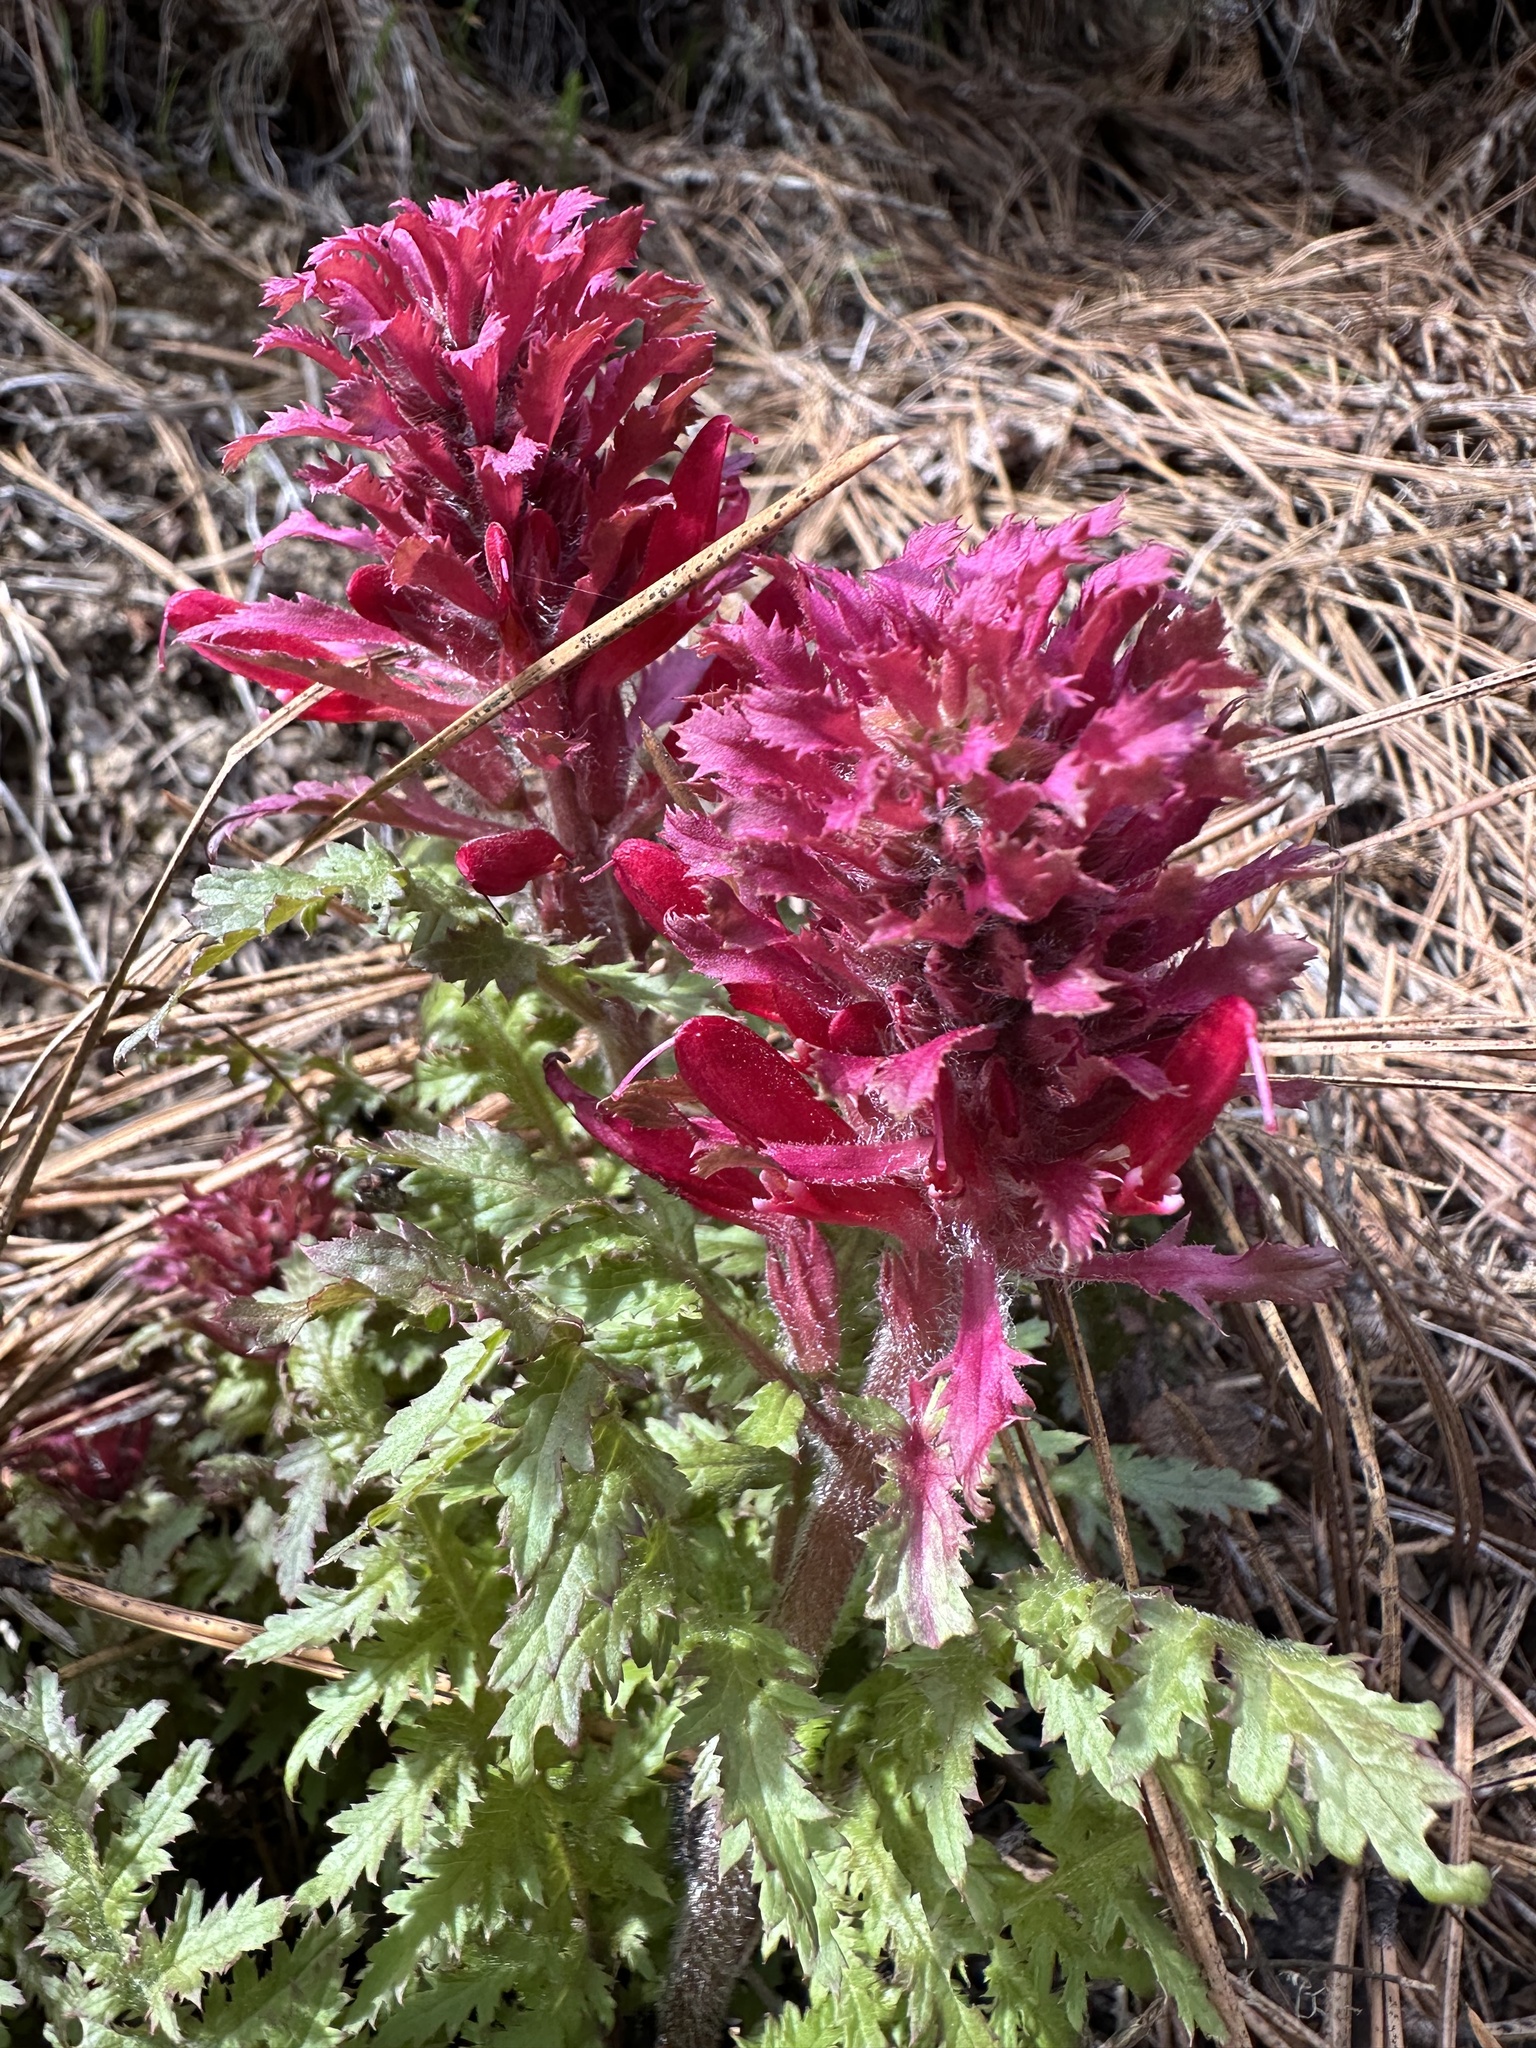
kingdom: Plantae
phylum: Tracheophyta
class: Magnoliopsida
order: Lamiales
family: Orobanchaceae
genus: Pedicularis
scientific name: Pedicularis densiflora
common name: Indian warrior
